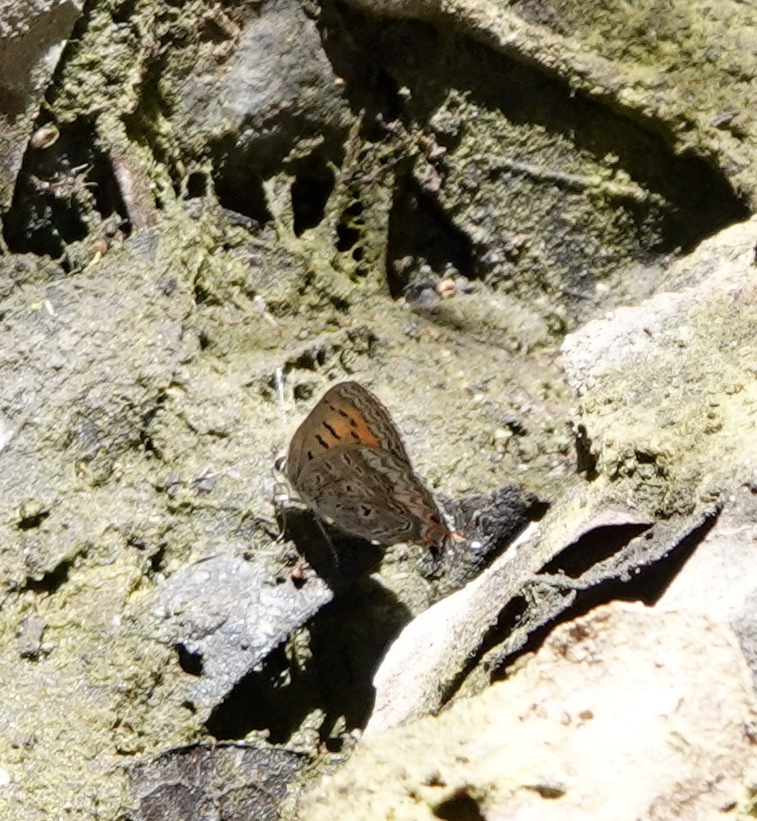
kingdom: Animalia
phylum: Arthropoda
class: Insecta
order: Lepidoptera
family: Lycaenidae
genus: Tharsalea
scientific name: Tharsalea arota
